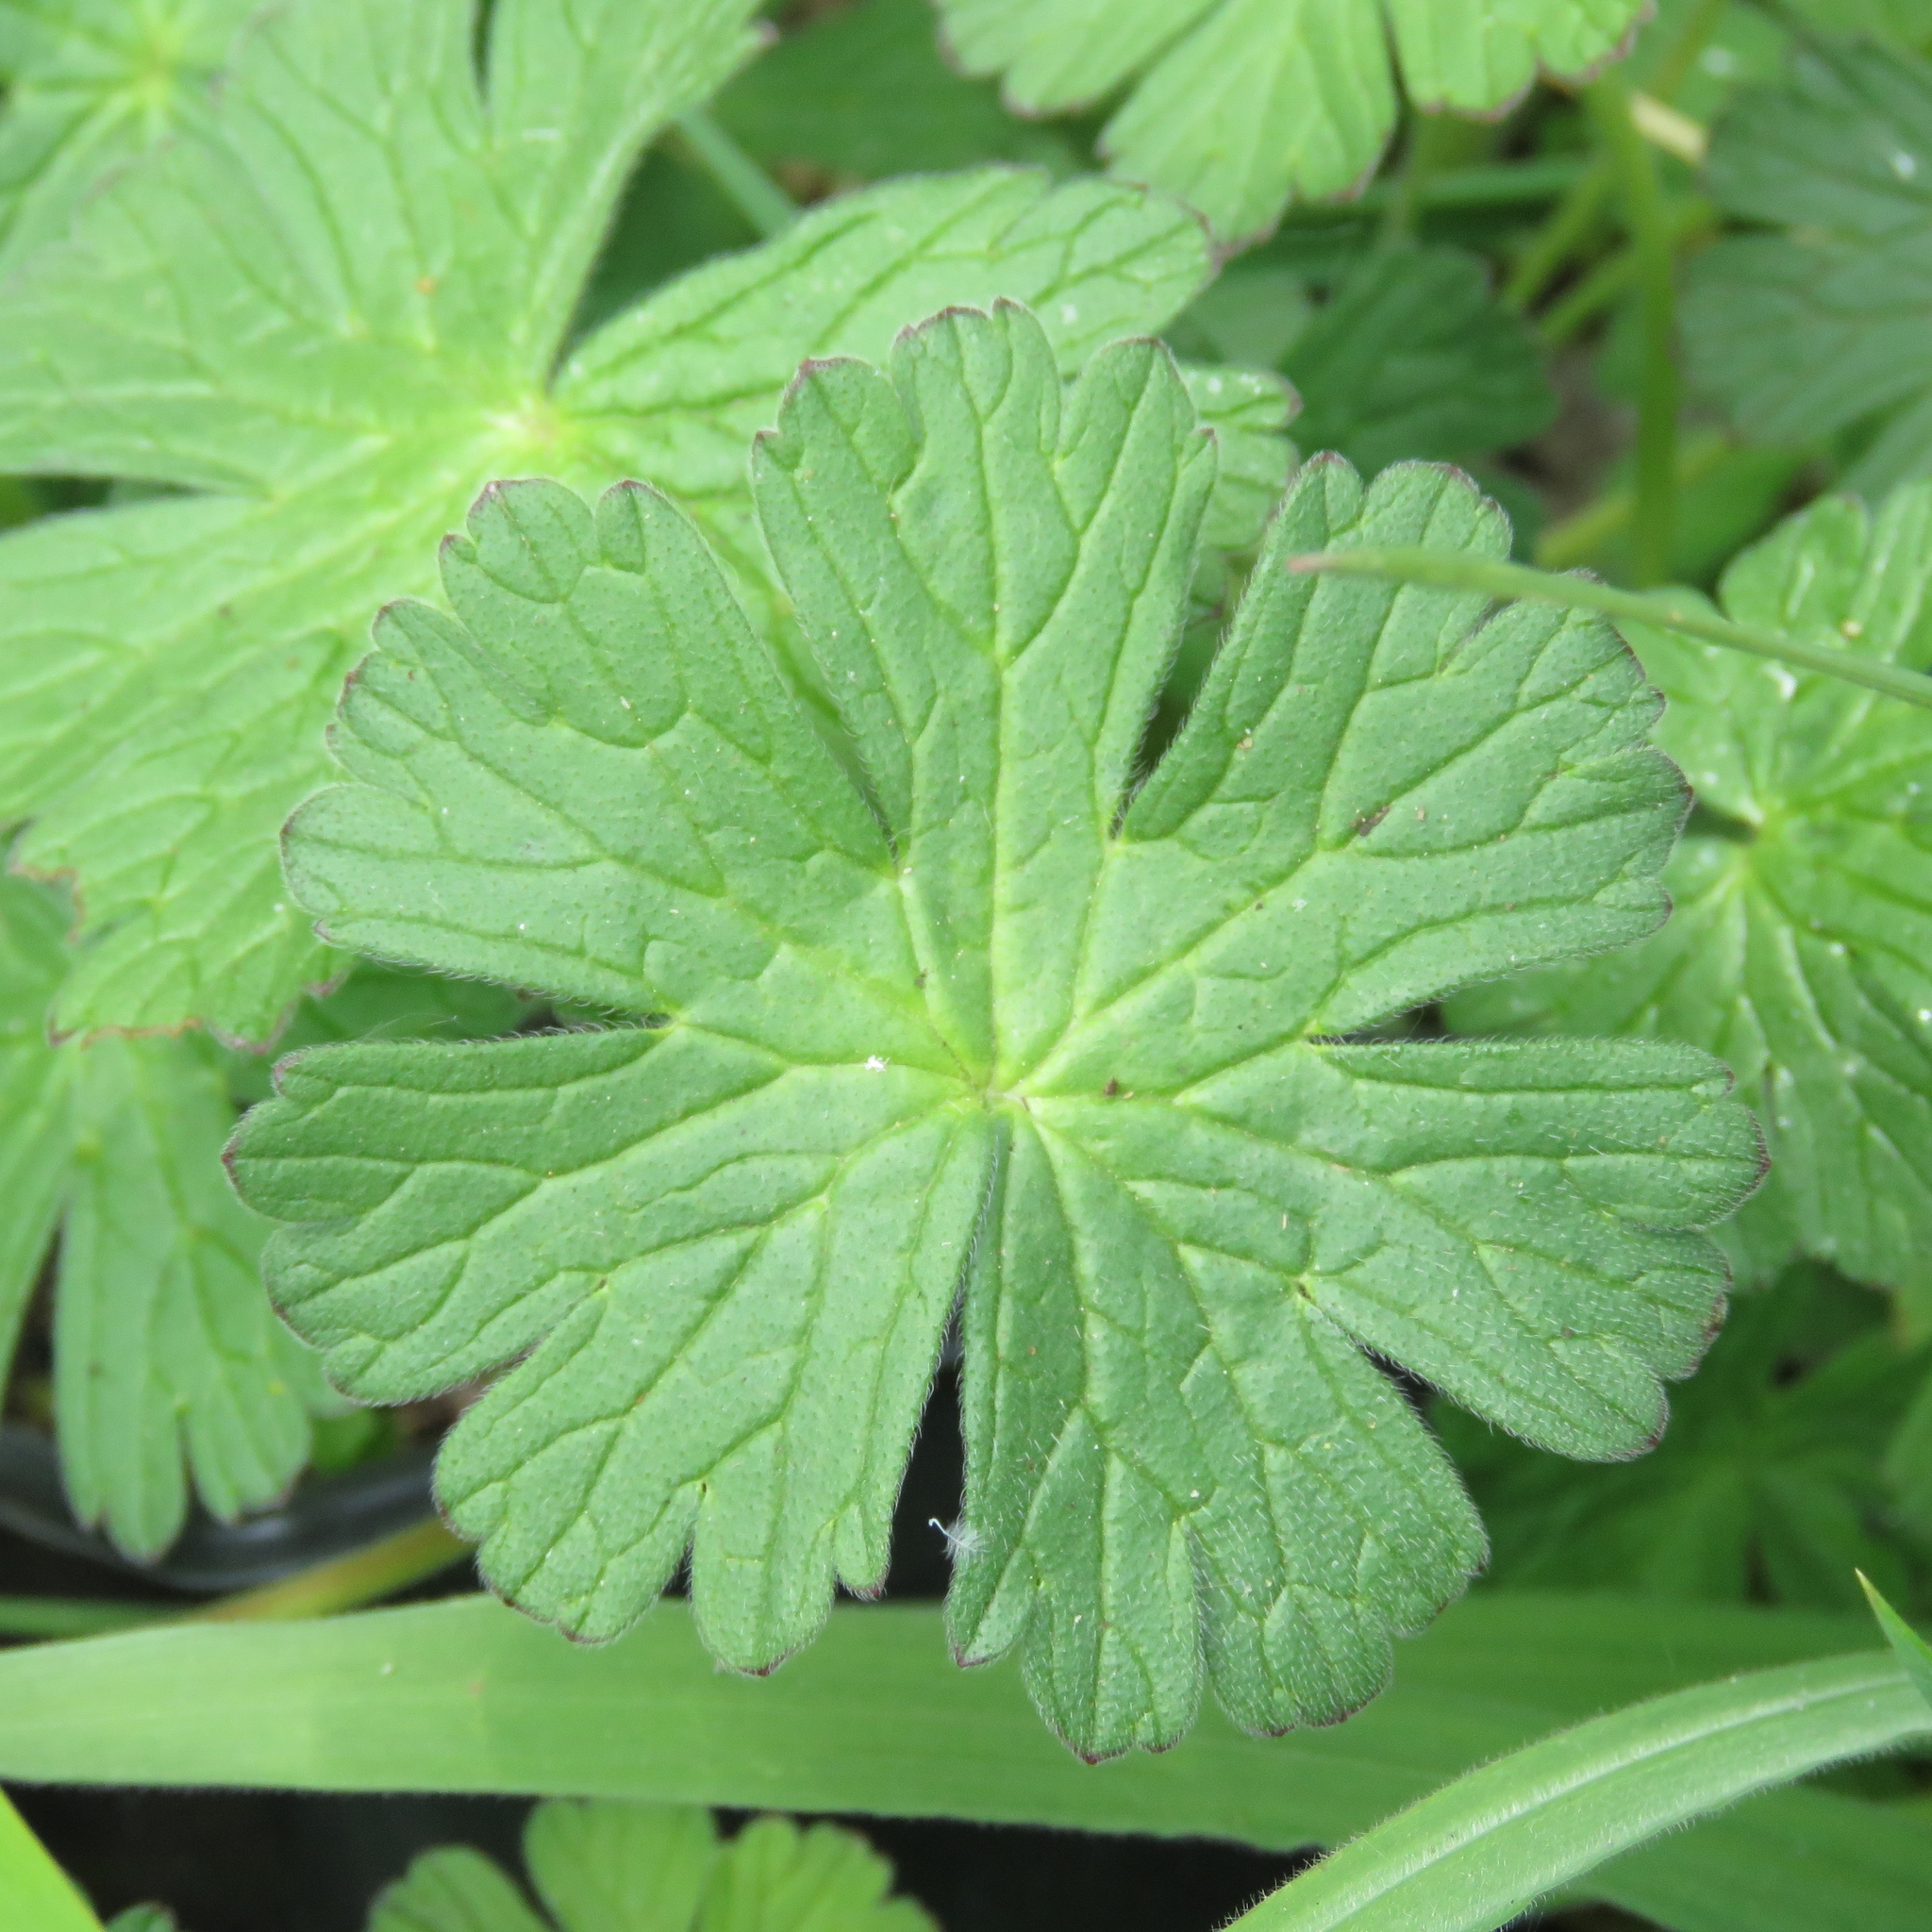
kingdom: Plantae
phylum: Tracheophyta
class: Magnoliopsida
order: Geraniales
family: Geraniaceae
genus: Geranium
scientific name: Geranium molle
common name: Dove's-foot crane's-bill
